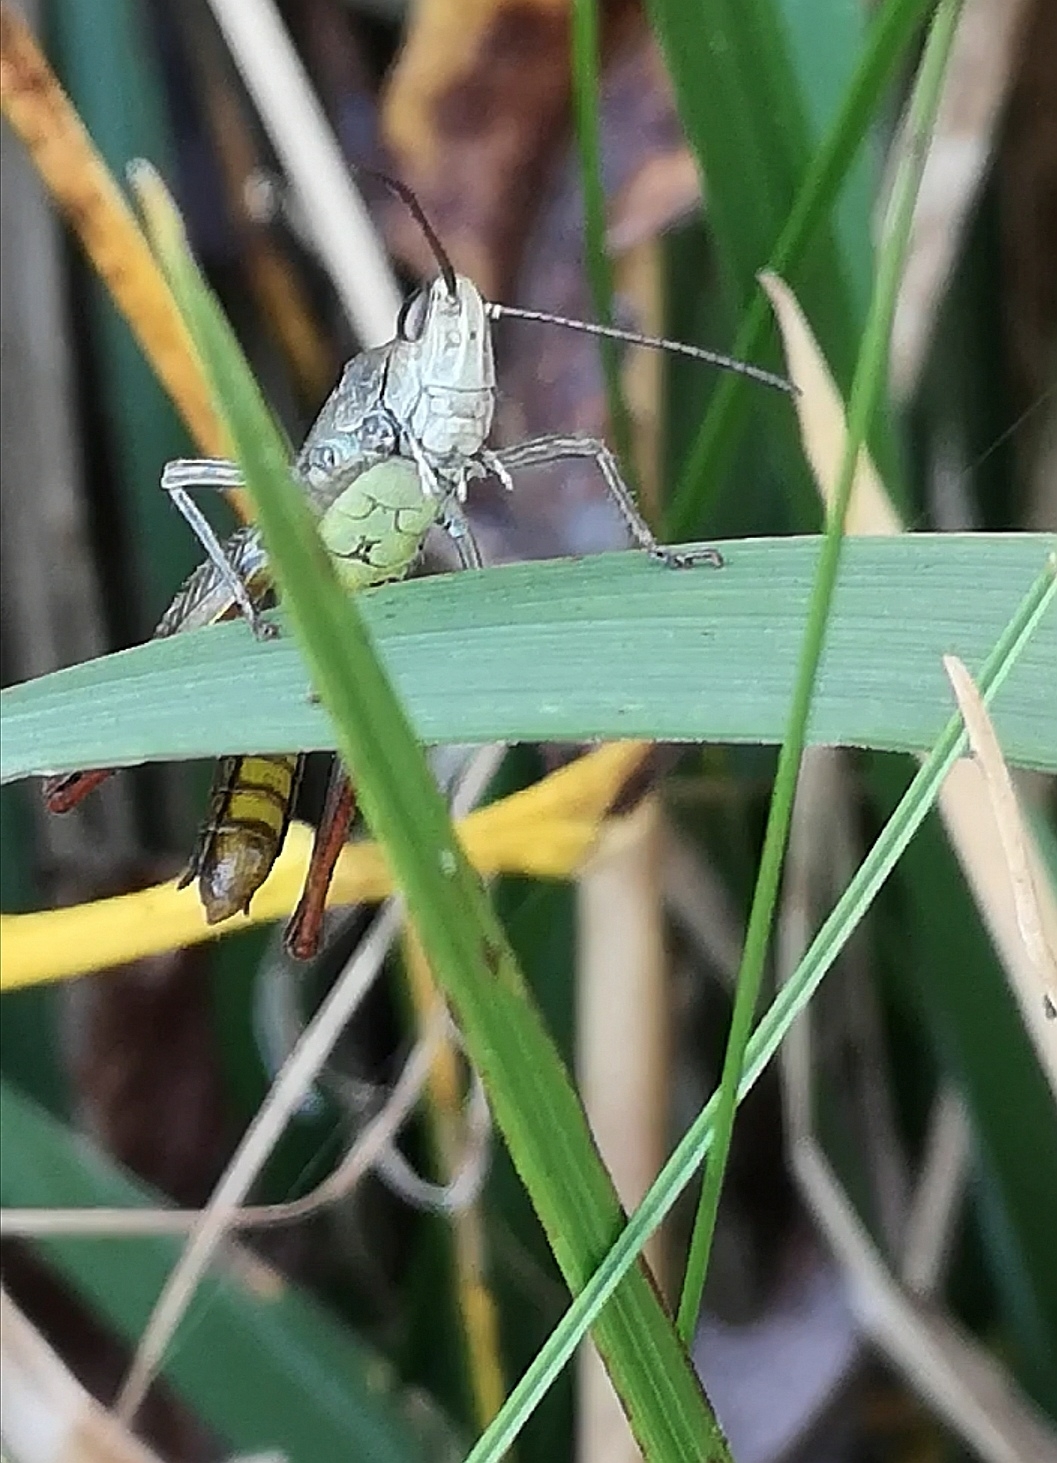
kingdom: Animalia
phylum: Arthropoda
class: Insecta
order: Orthoptera
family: Acrididae
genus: Chorthippus
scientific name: Chorthippus biguttulus
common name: Bow-winged grasshopper
